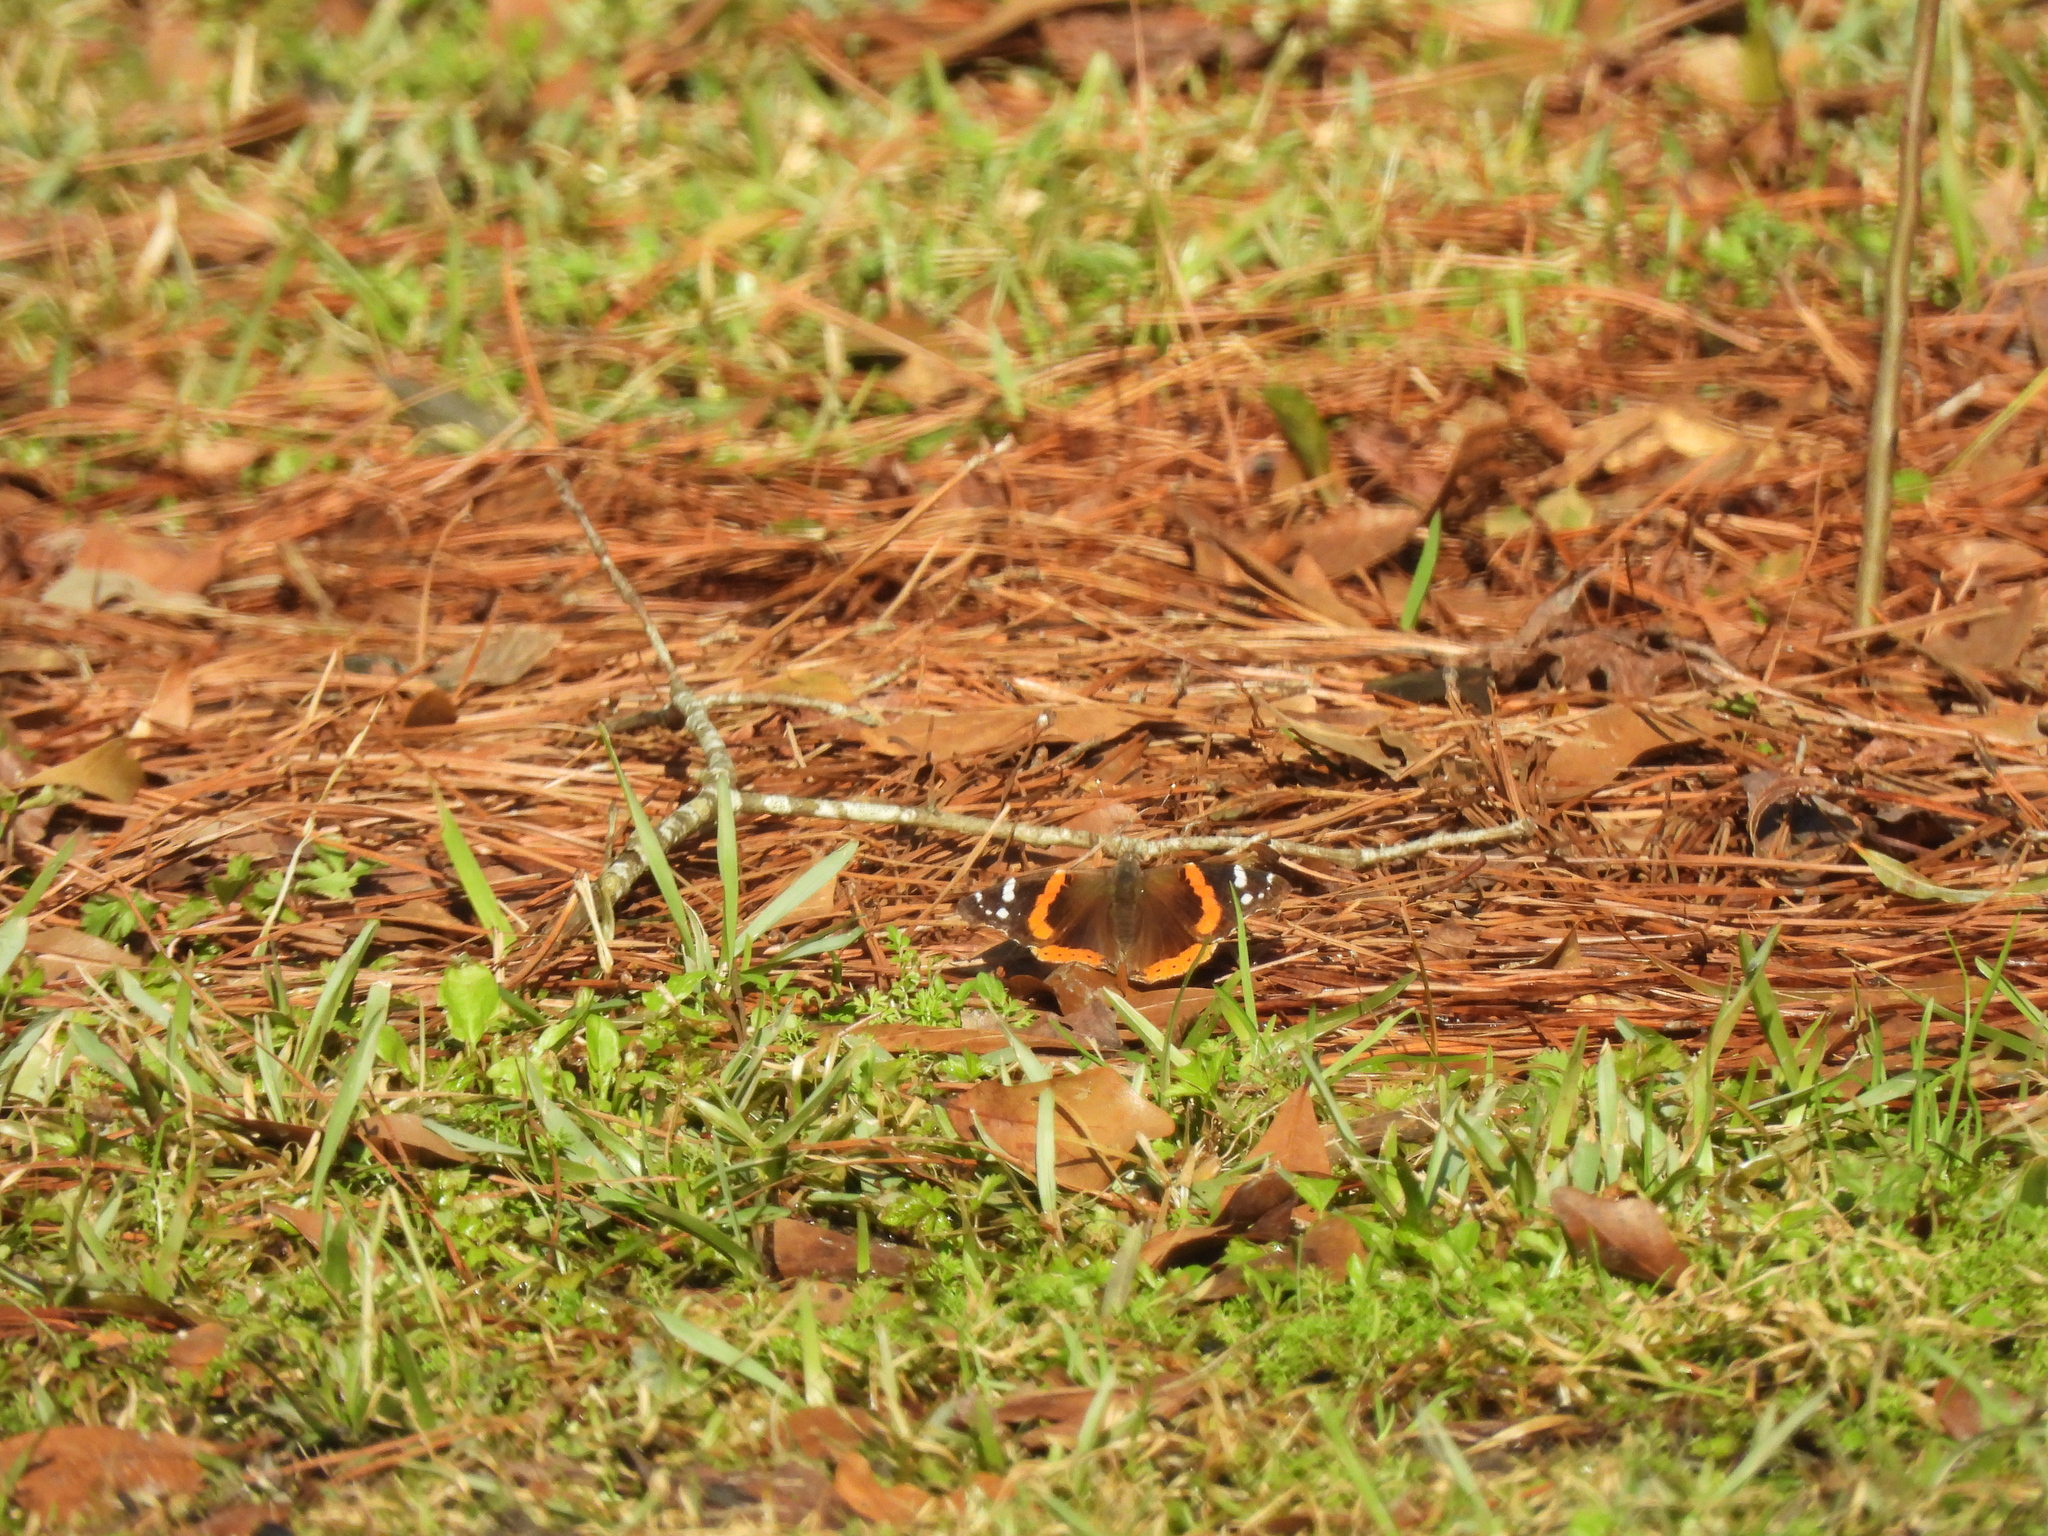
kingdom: Animalia
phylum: Arthropoda
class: Insecta
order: Lepidoptera
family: Nymphalidae
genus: Vanessa
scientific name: Vanessa atalanta
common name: Red admiral
